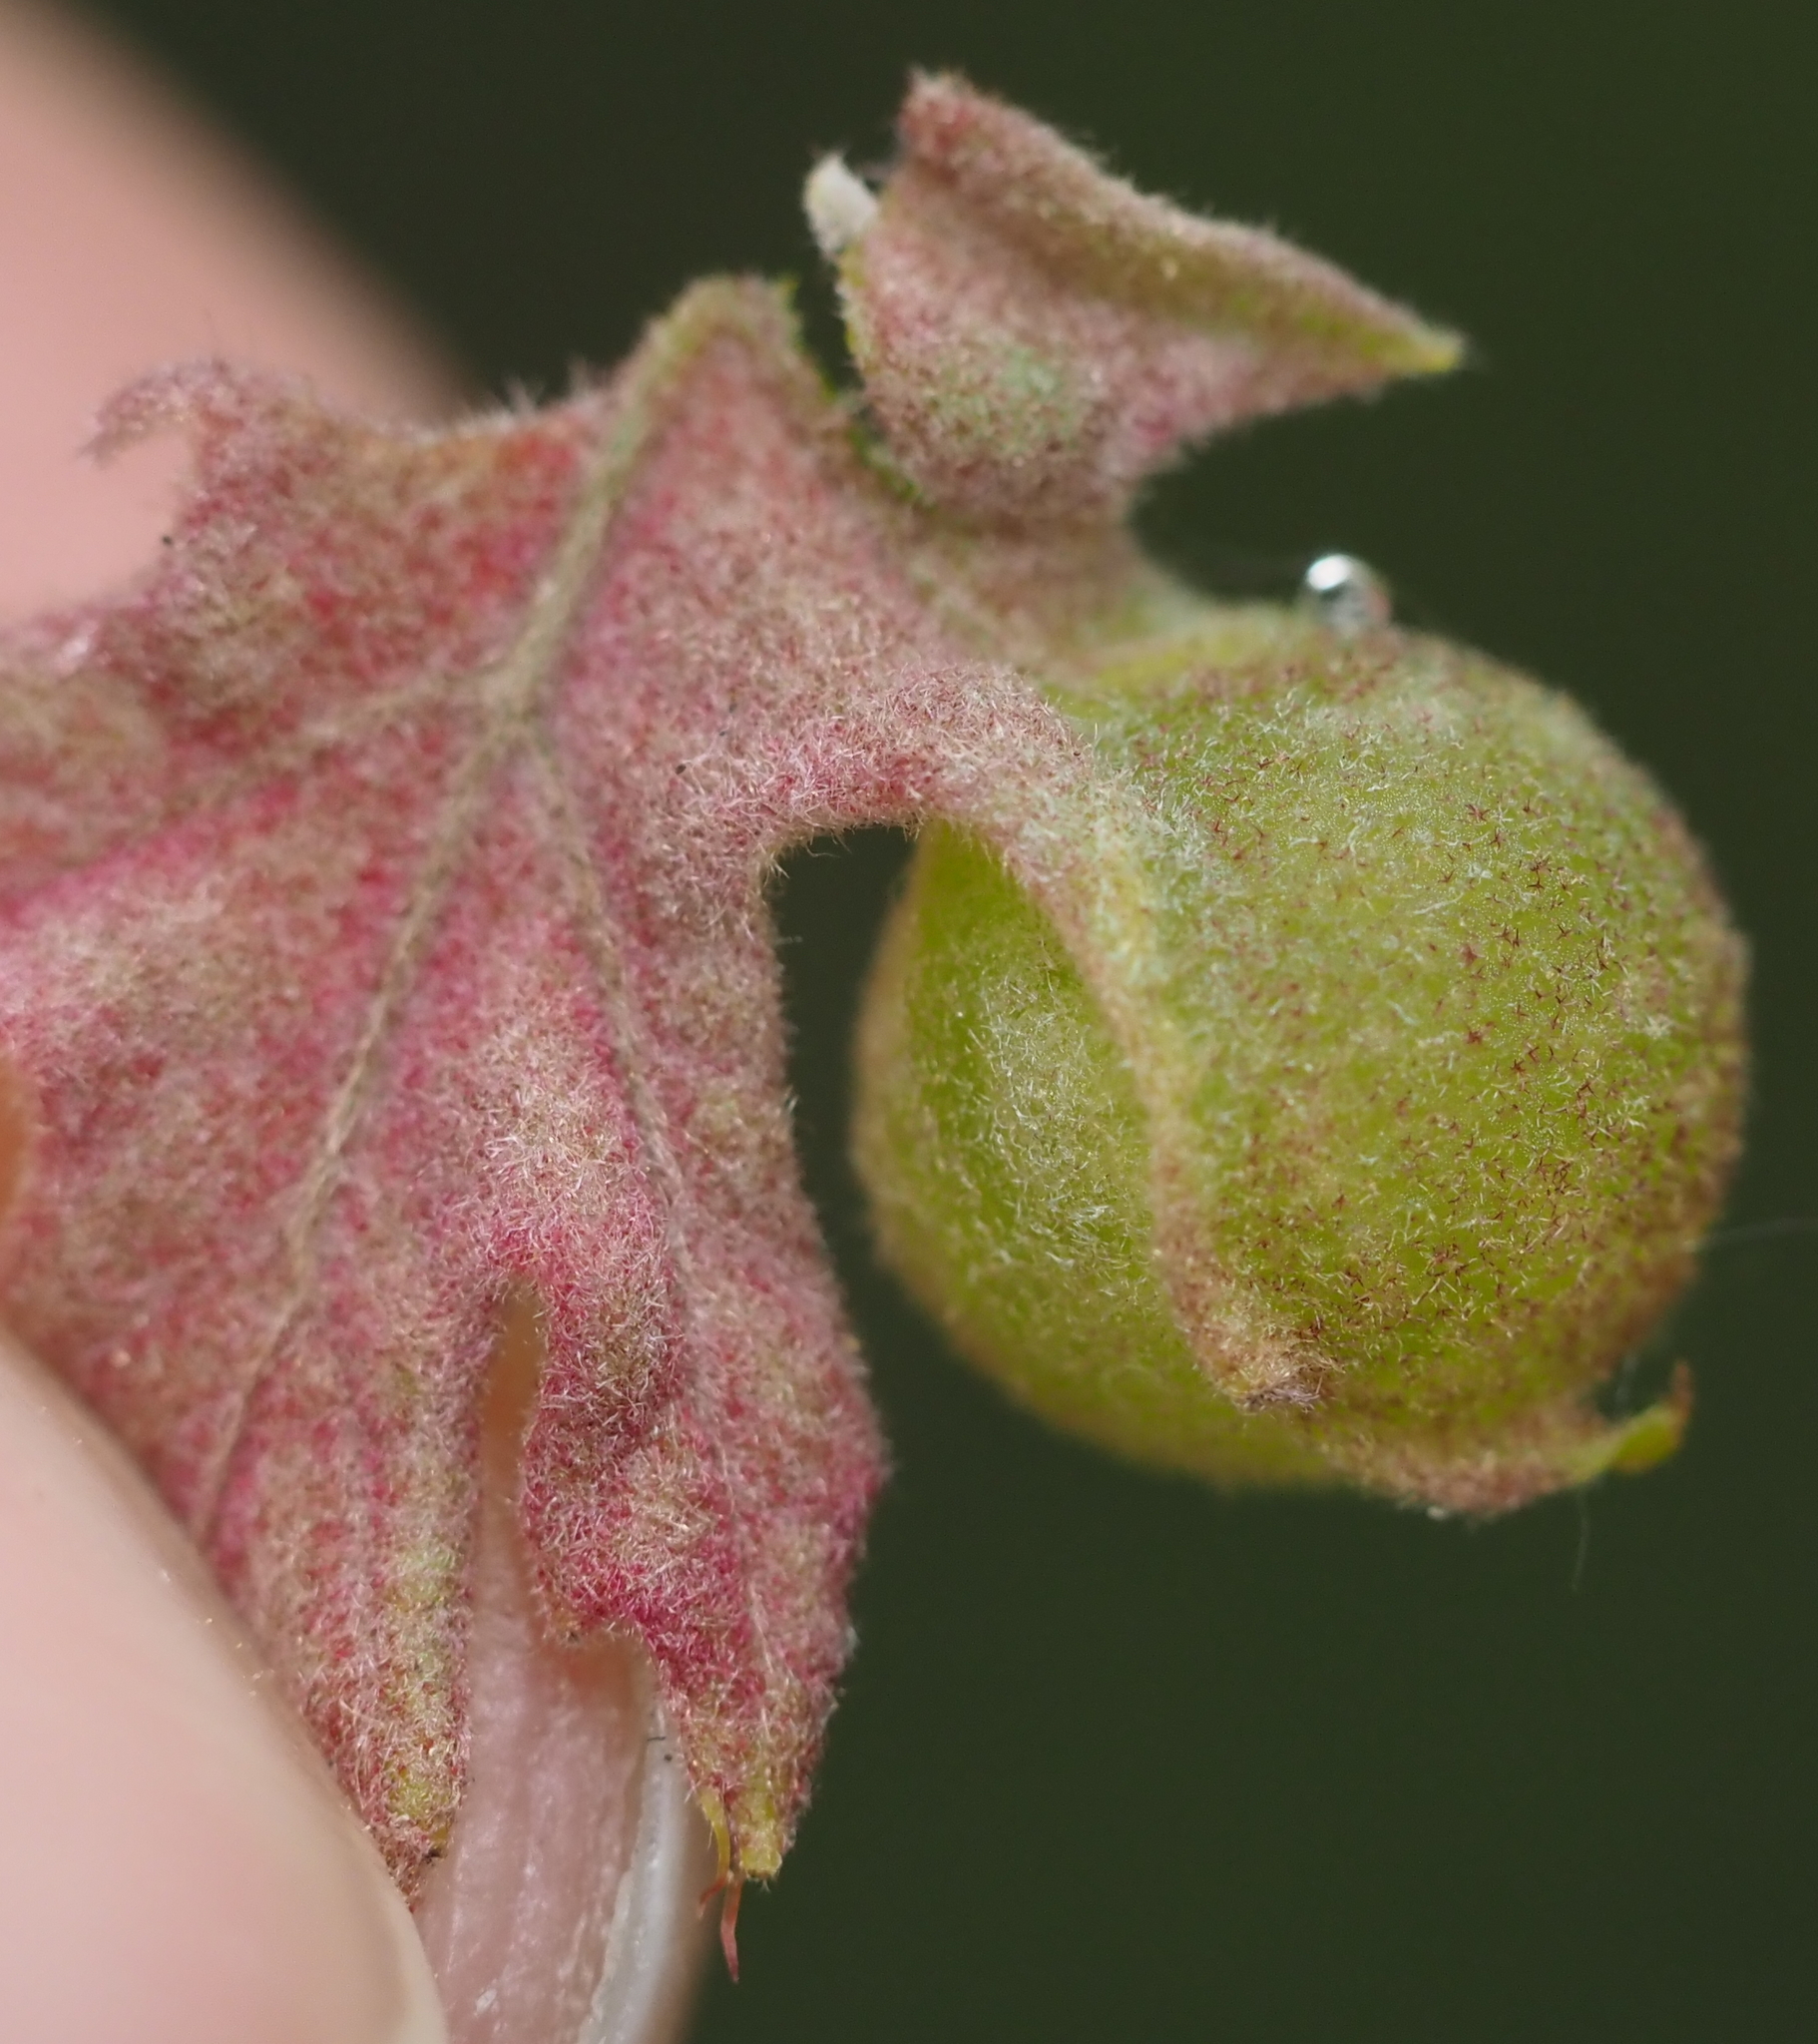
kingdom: Animalia
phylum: Arthropoda
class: Insecta
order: Hymenoptera
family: Cynipidae
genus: Dryocosmus
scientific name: Dryocosmus quercuspalustris
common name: Succulent oak gall wasp
